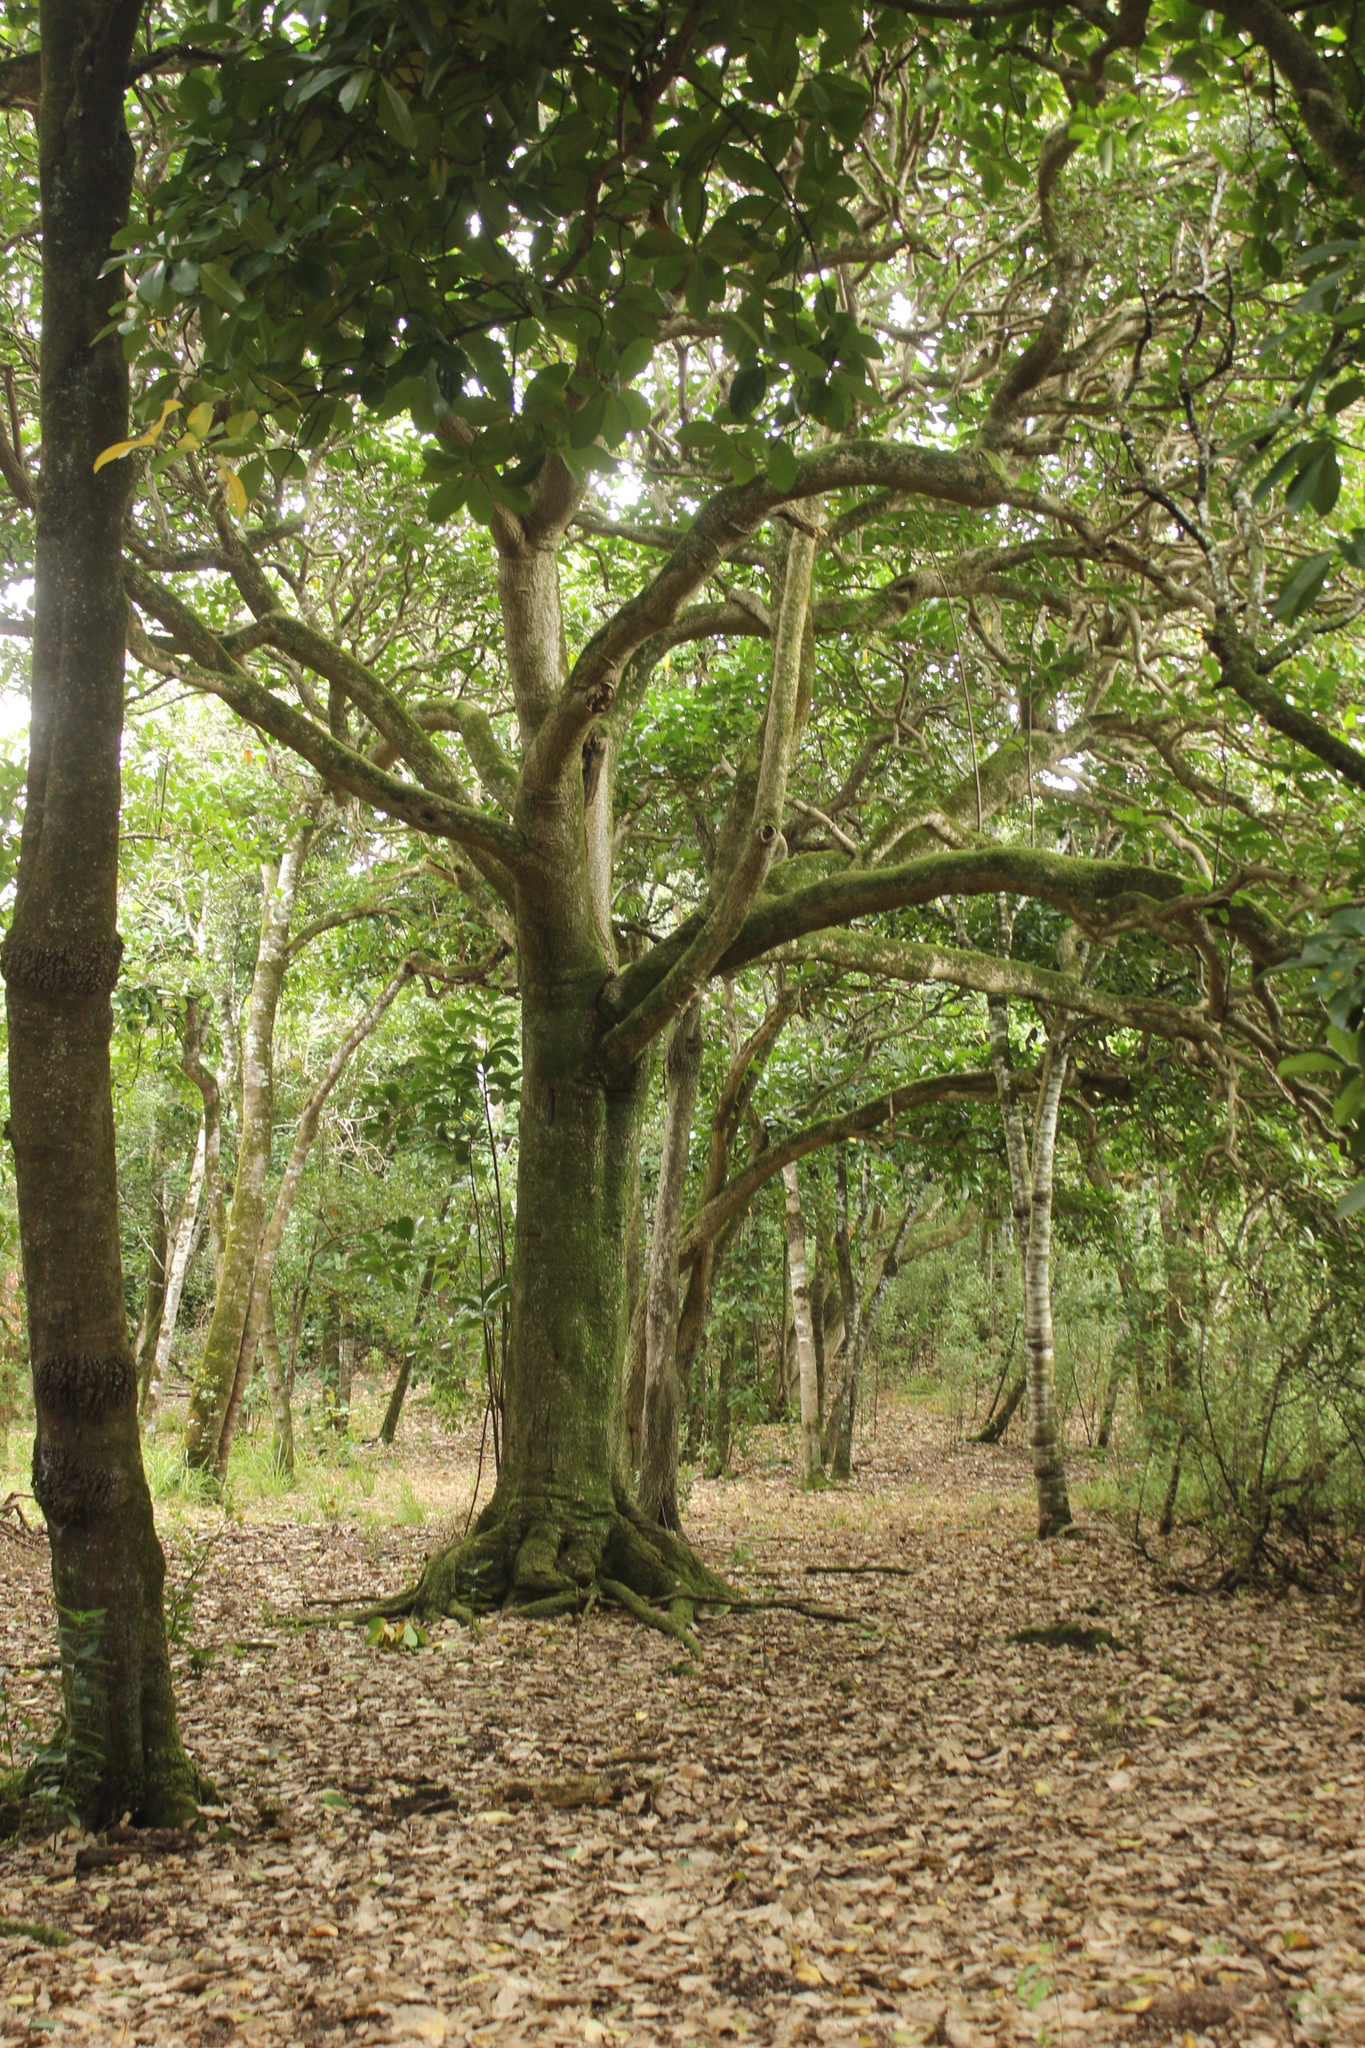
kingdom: Plantae
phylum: Tracheophyta
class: Magnoliopsida
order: Cucurbitales
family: Corynocarpaceae
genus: Corynocarpus
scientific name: Corynocarpus laevigatus
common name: New zealand laurel
